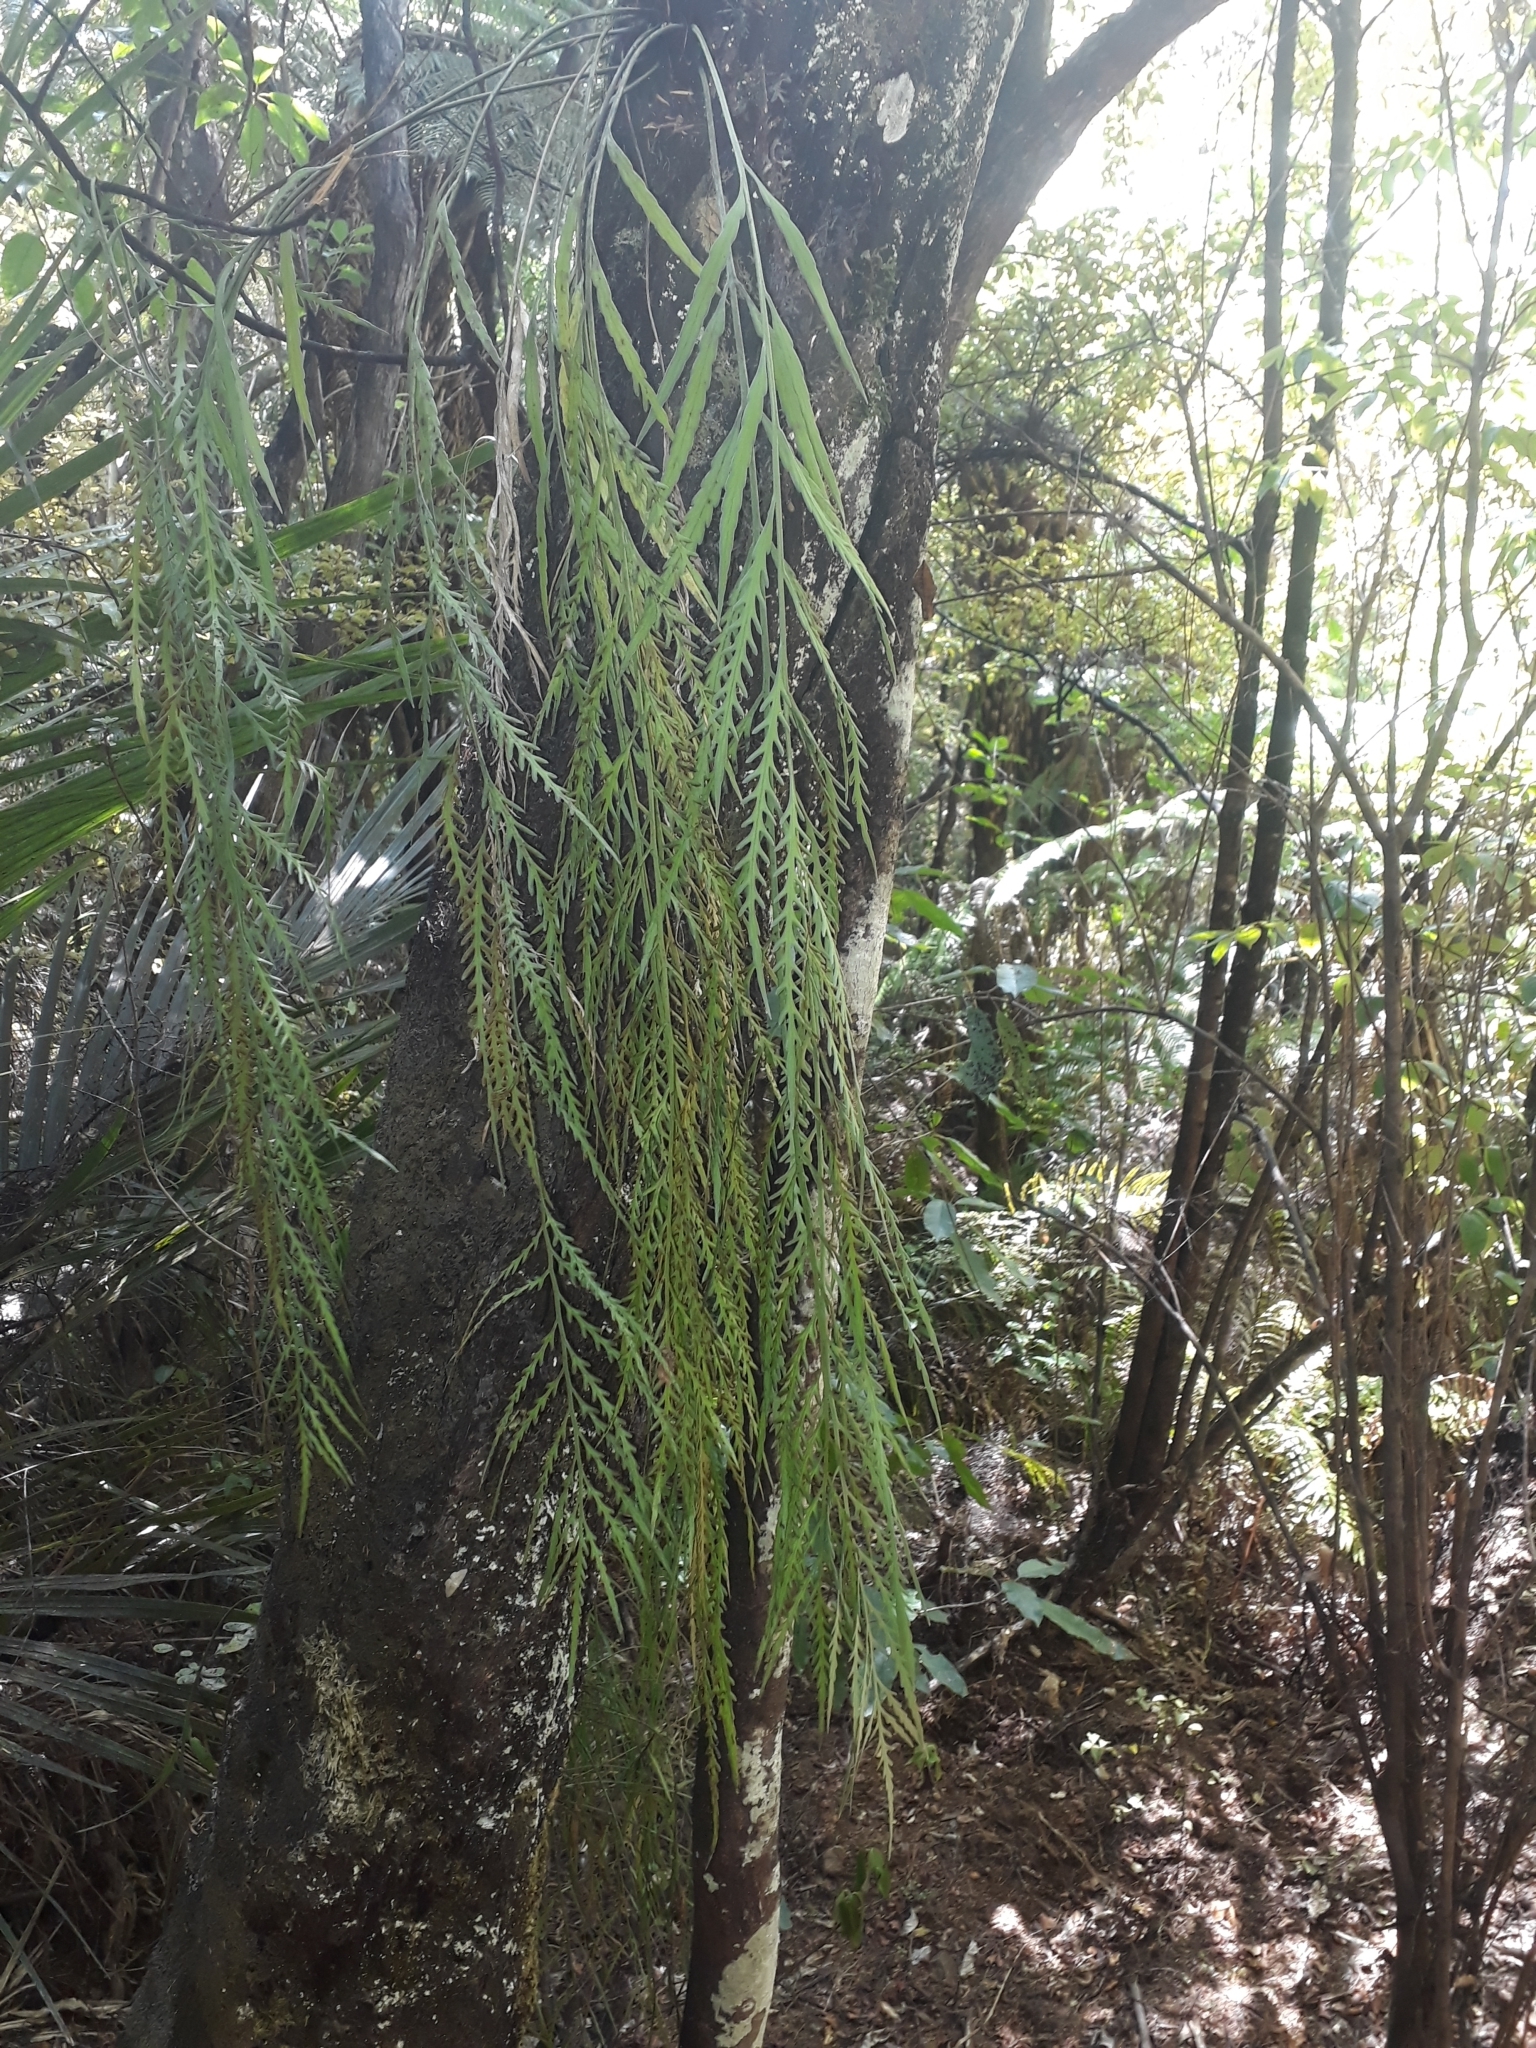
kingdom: Plantae
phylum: Tracheophyta
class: Polypodiopsida
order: Polypodiales
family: Aspleniaceae
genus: Asplenium
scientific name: Asplenium flaccidum
